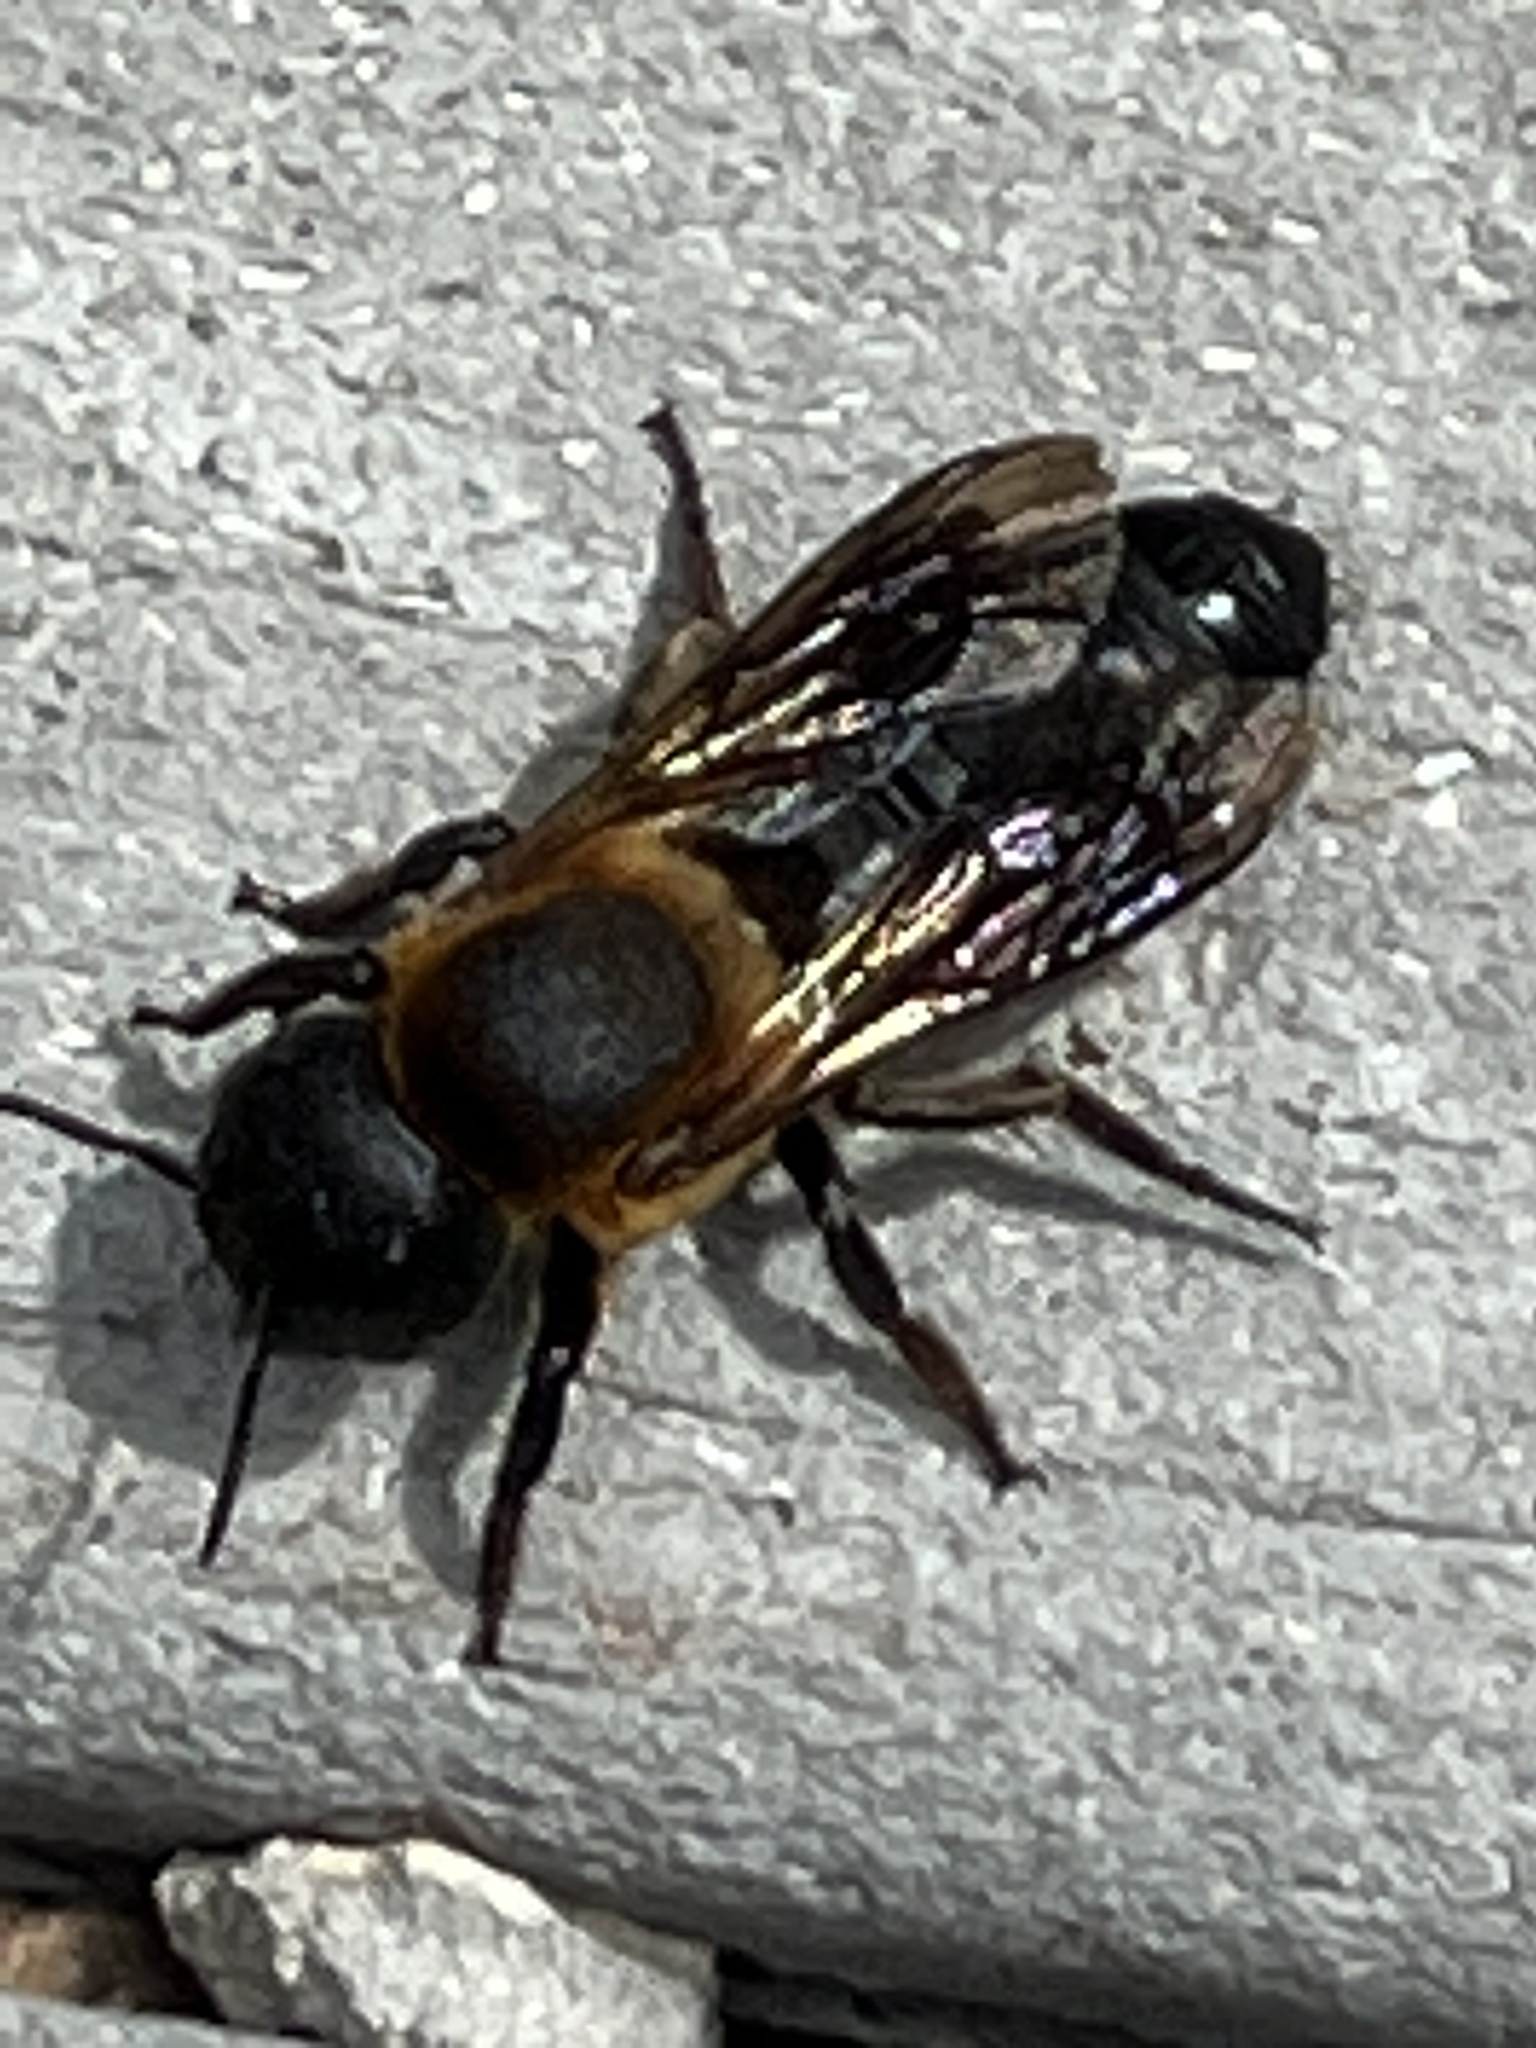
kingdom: Animalia
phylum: Arthropoda
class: Insecta
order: Hymenoptera
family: Megachilidae
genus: Megachile
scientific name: Megachile sculpturalis
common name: Sculptured resin bee
